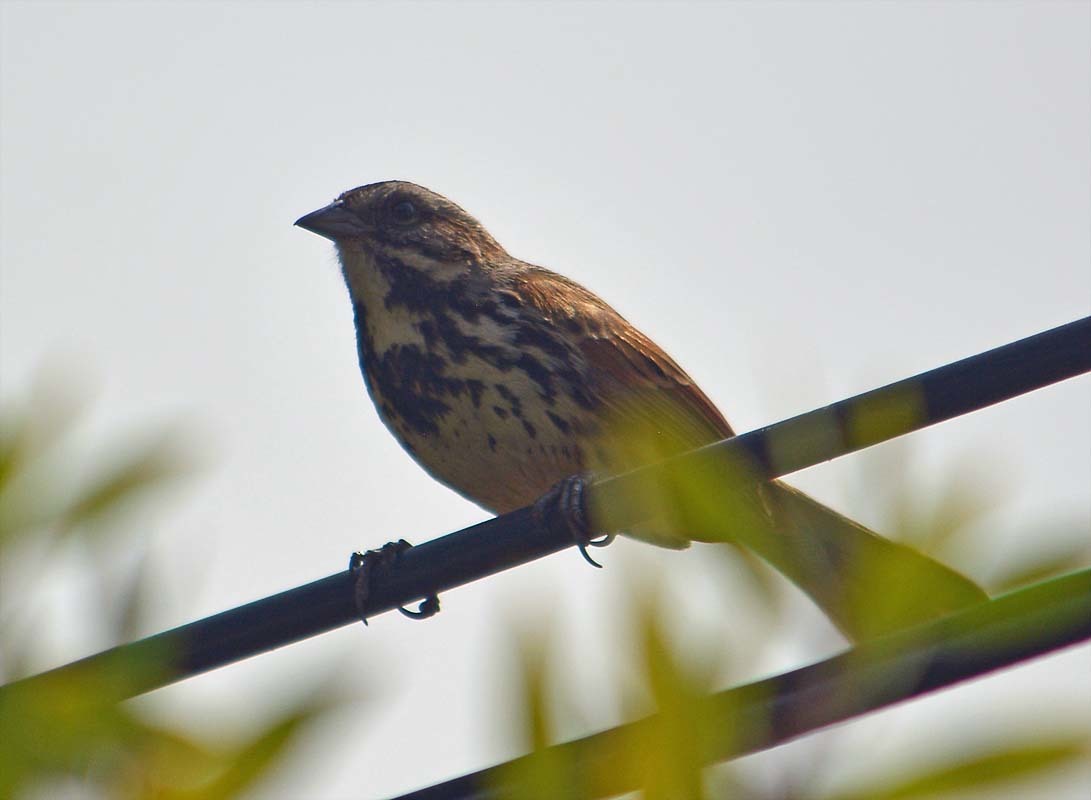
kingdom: Animalia
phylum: Chordata
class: Aves
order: Passeriformes
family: Passerellidae
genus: Melospiza
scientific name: Melospiza melodia
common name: Song sparrow
